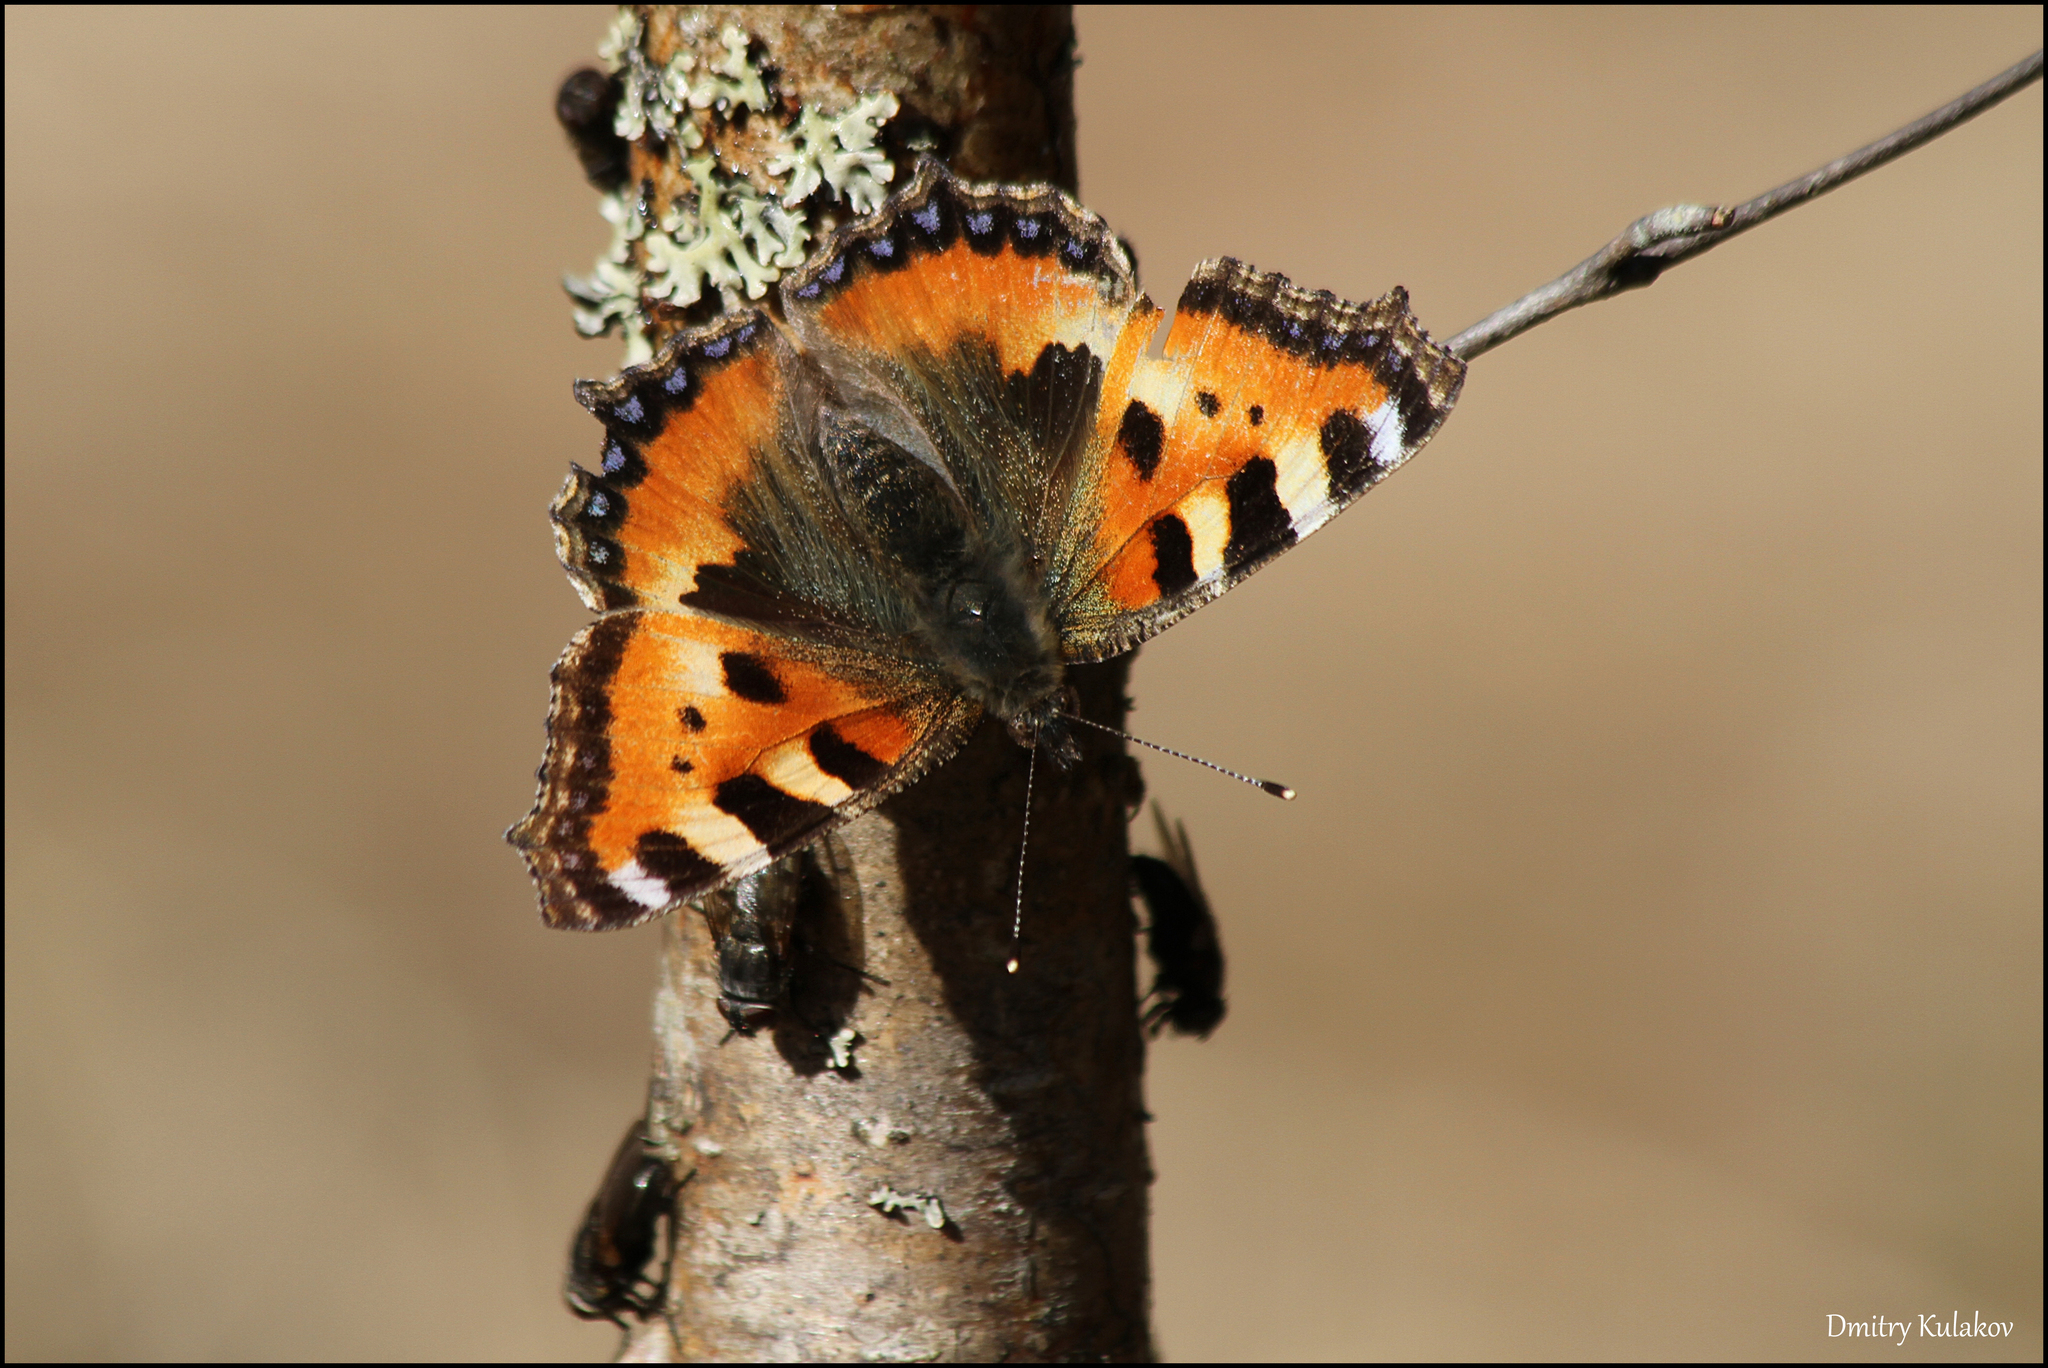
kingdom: Animalia
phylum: Arthropoda
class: Insecta
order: Lepidoptera
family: Nymphalidae
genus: Aglais
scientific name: Aglais urticae
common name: Small tortoiseshell
